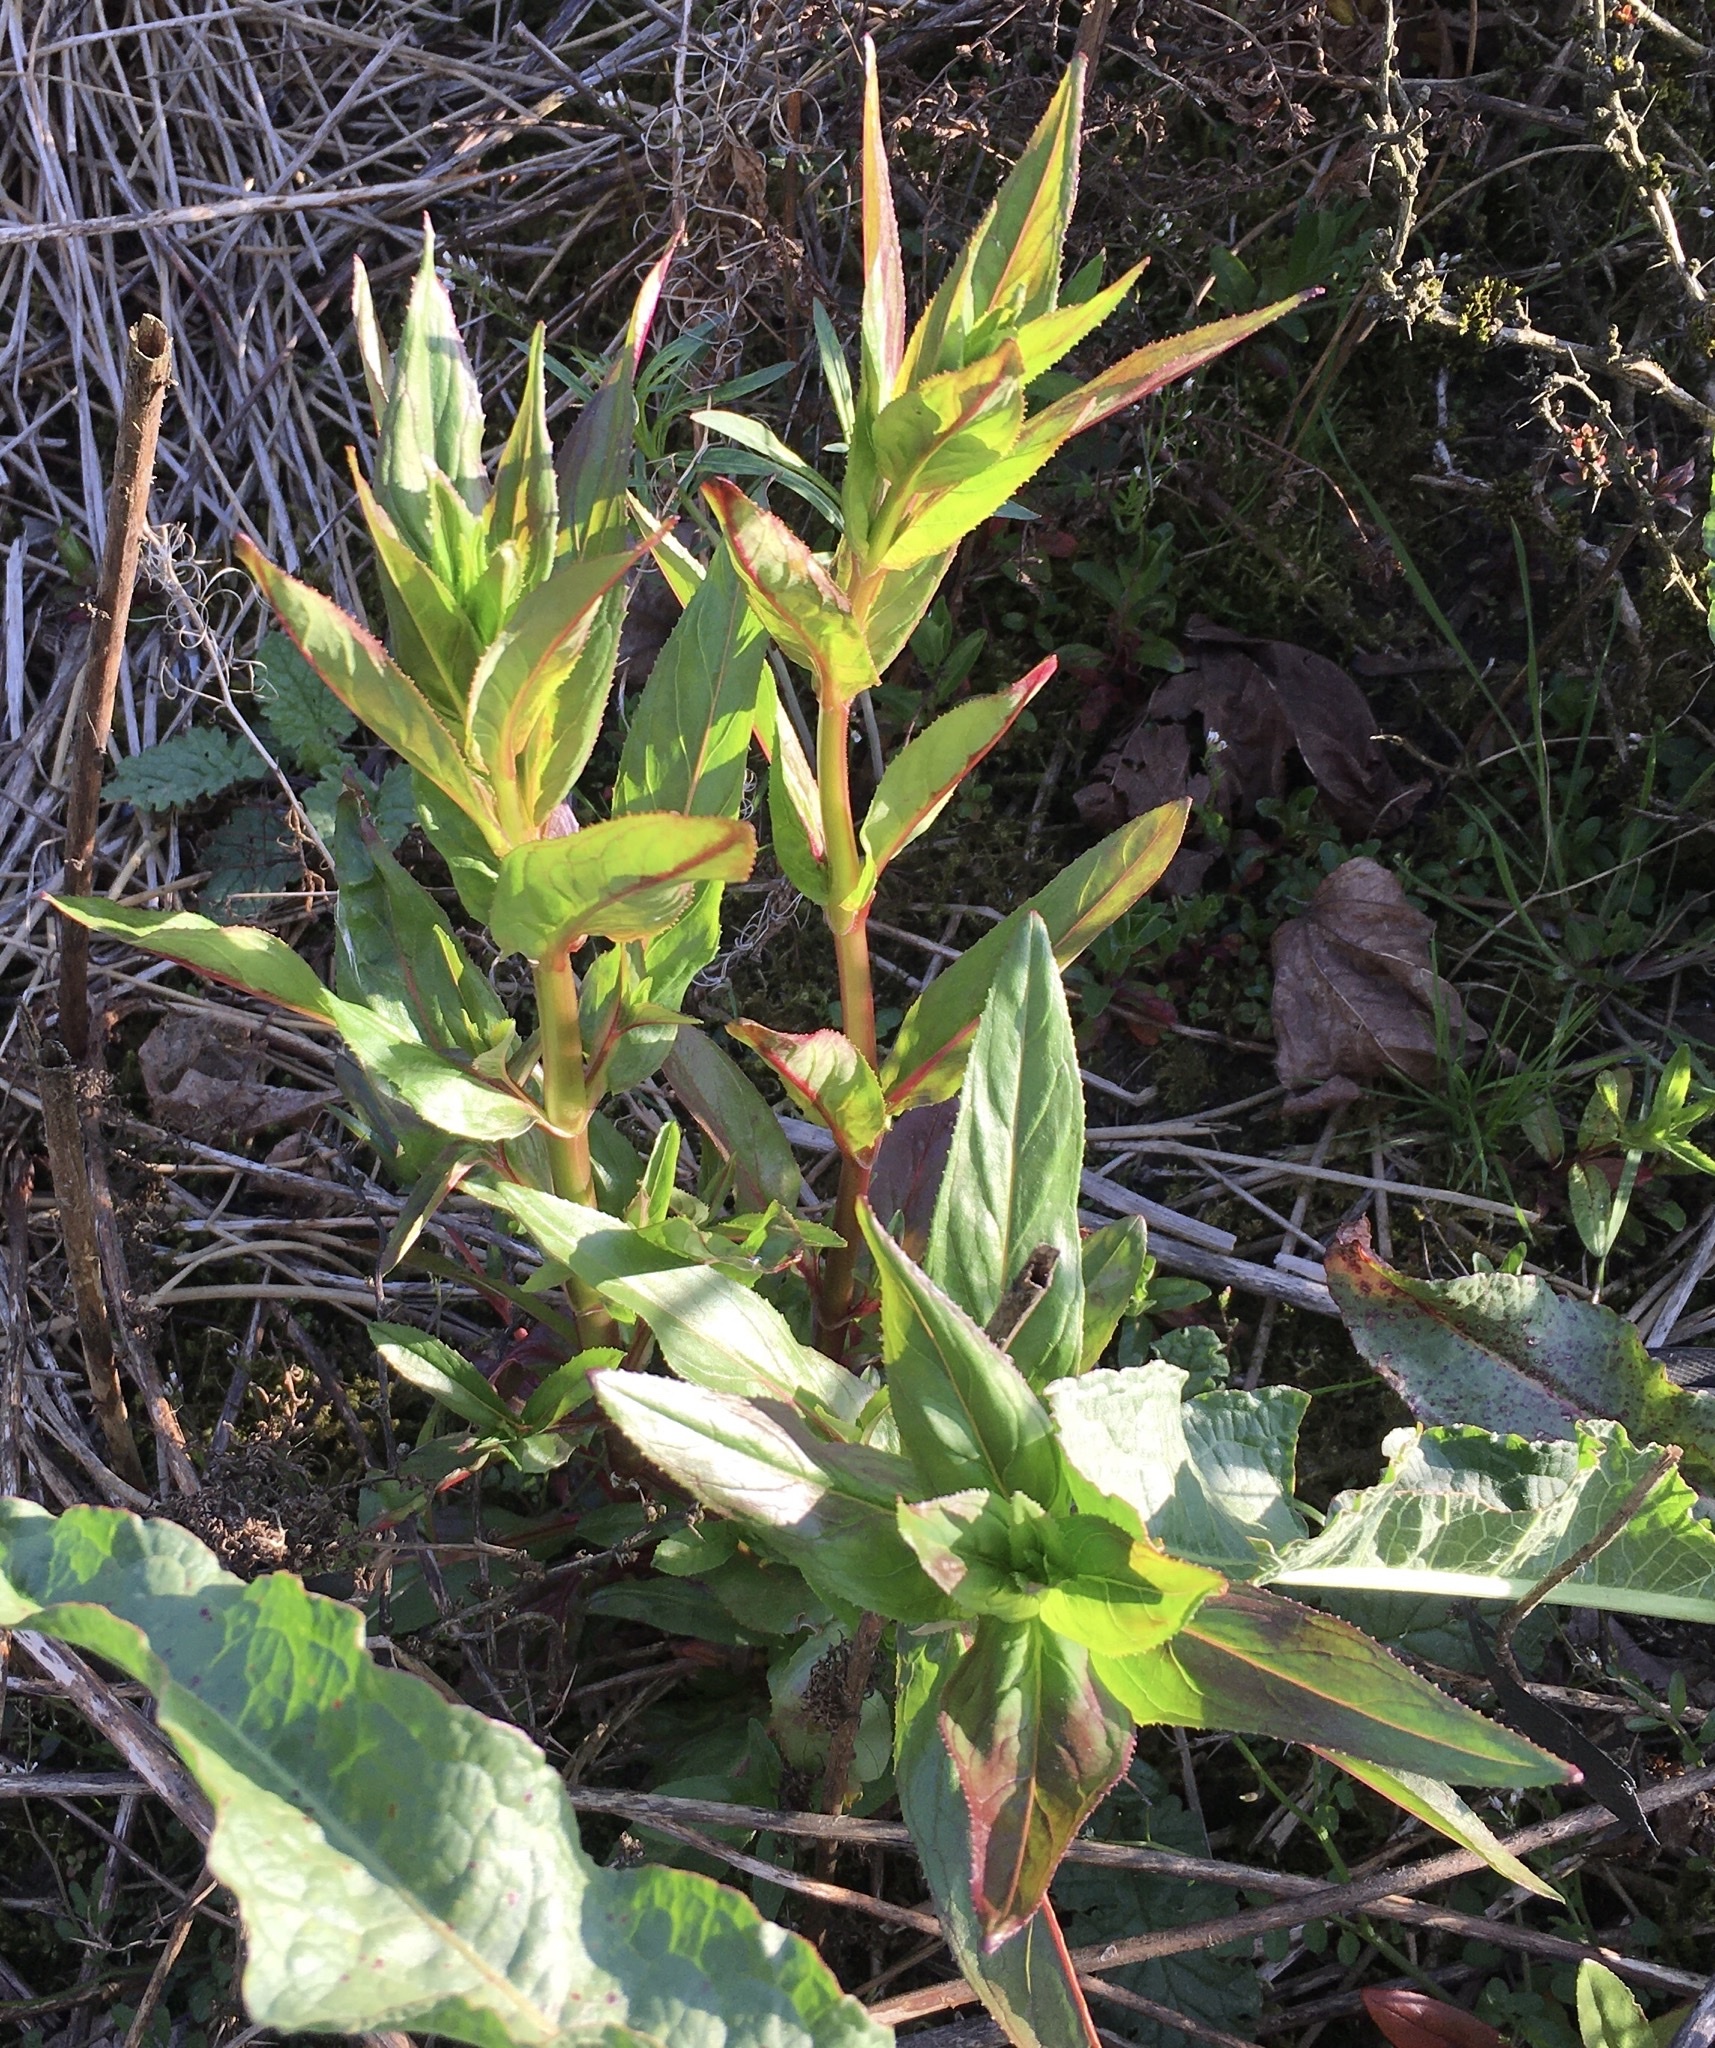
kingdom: Plantae
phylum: Tracheophyta
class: Magnoliopsida
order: Myrtales
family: Onagraceae
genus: Chamaenerion
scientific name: Chamaenerion angustifolium
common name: Fireweed
